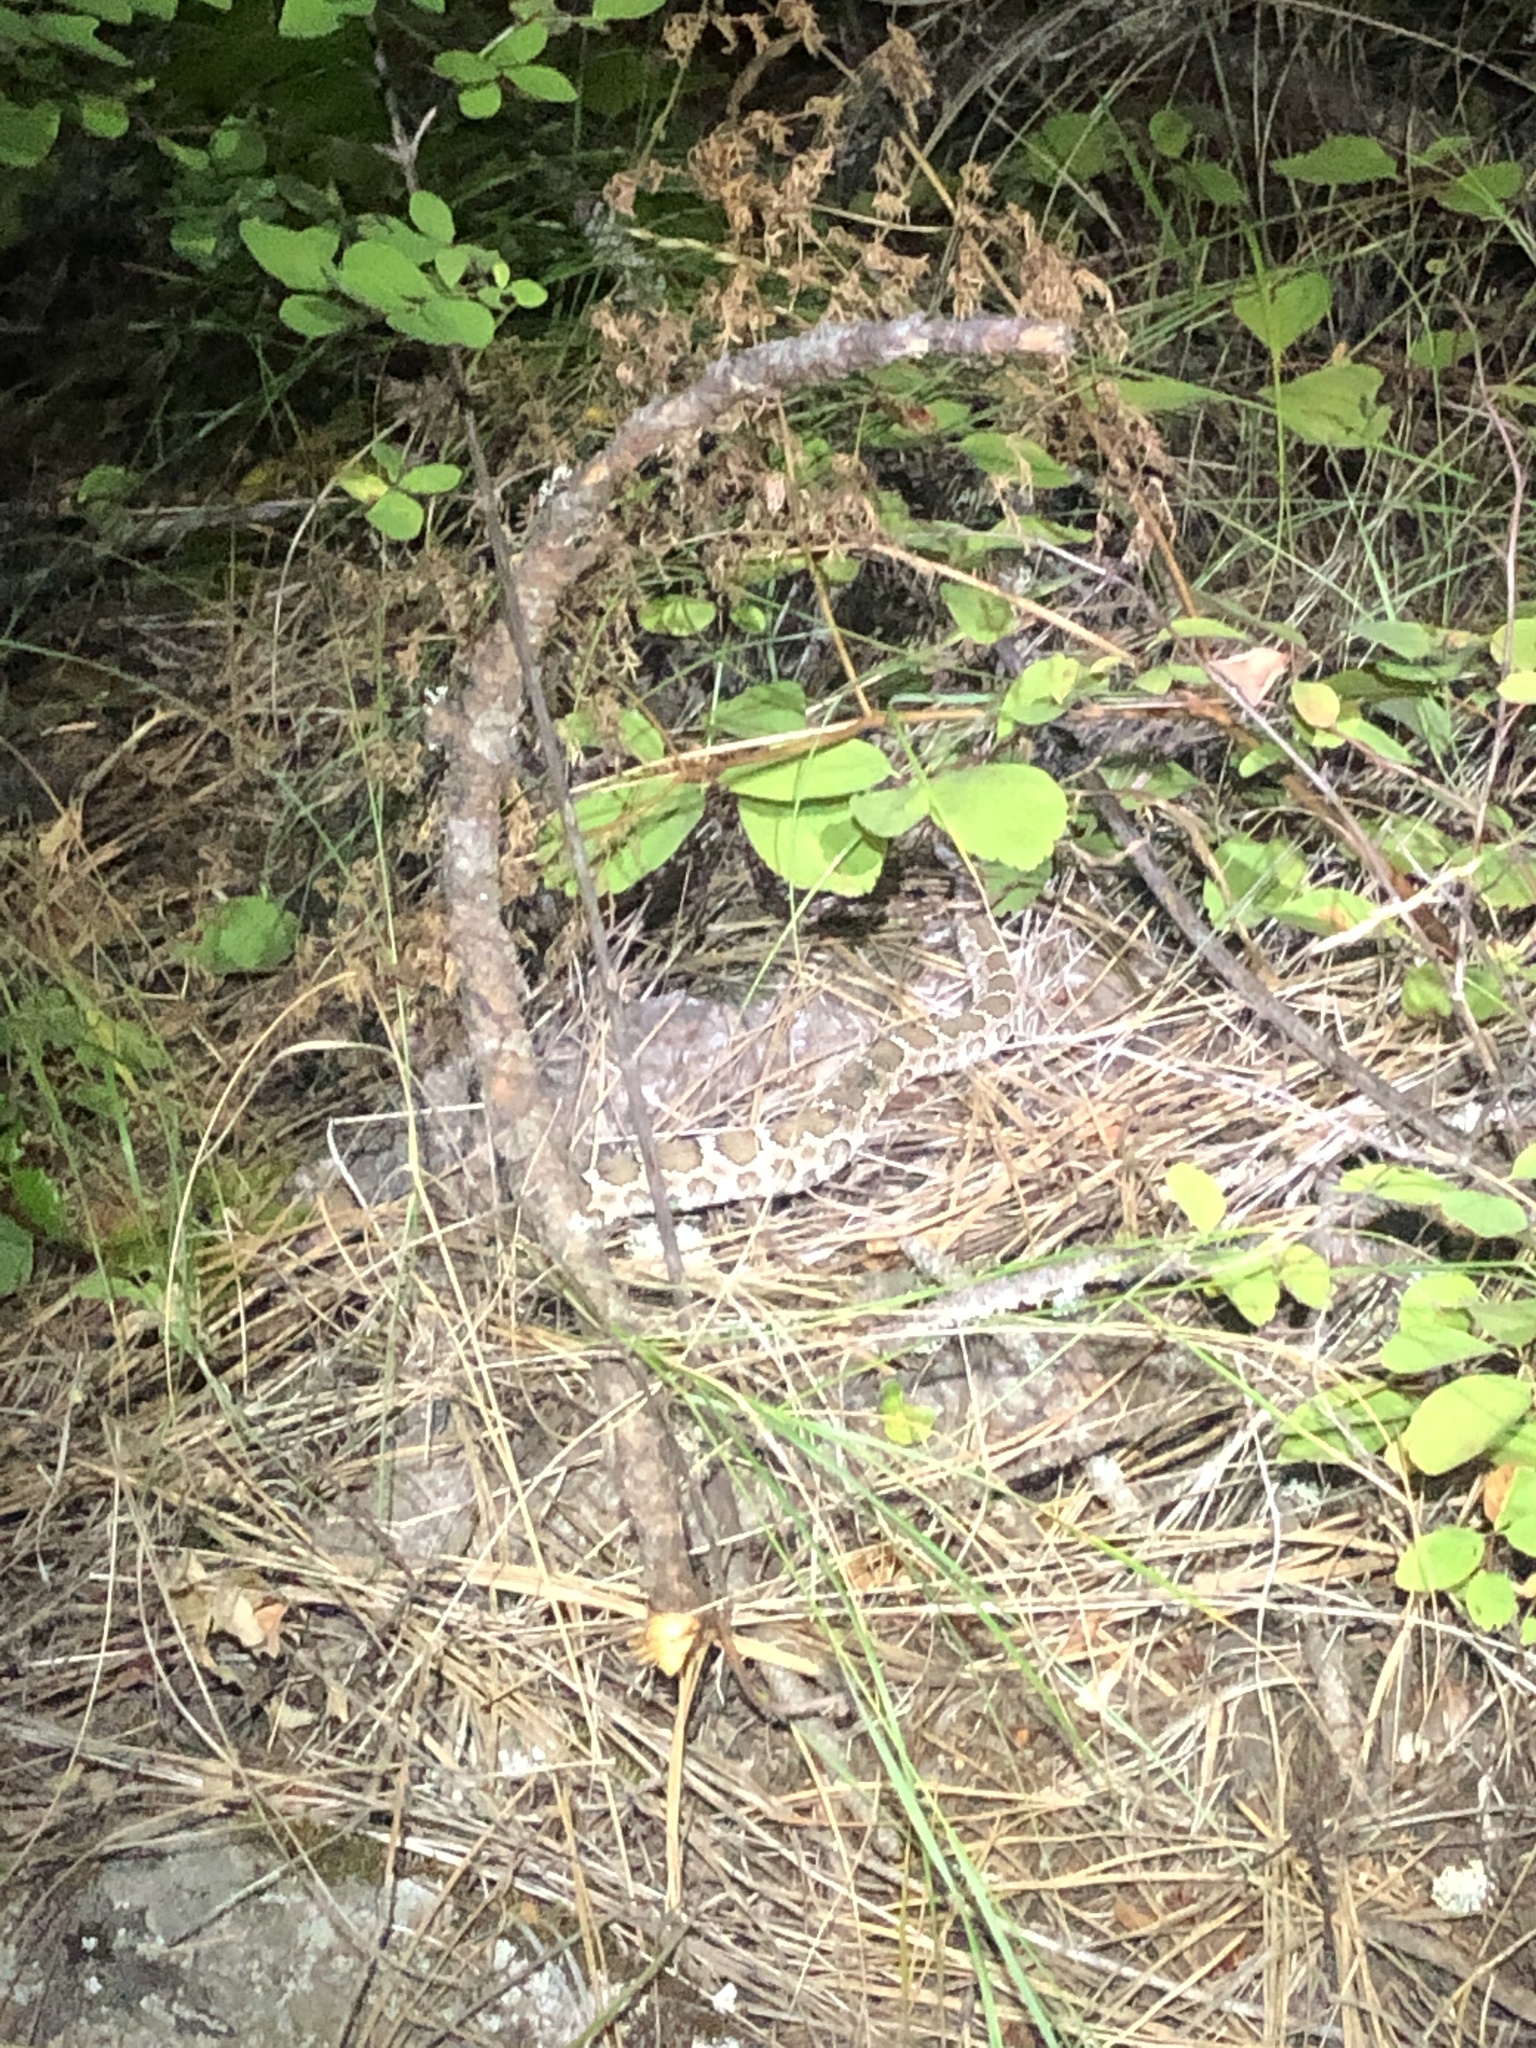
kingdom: Animalia
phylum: Chordata
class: Squamata
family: Viperidae
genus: Crotalus
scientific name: Crotalus oreganus
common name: Abyssus
